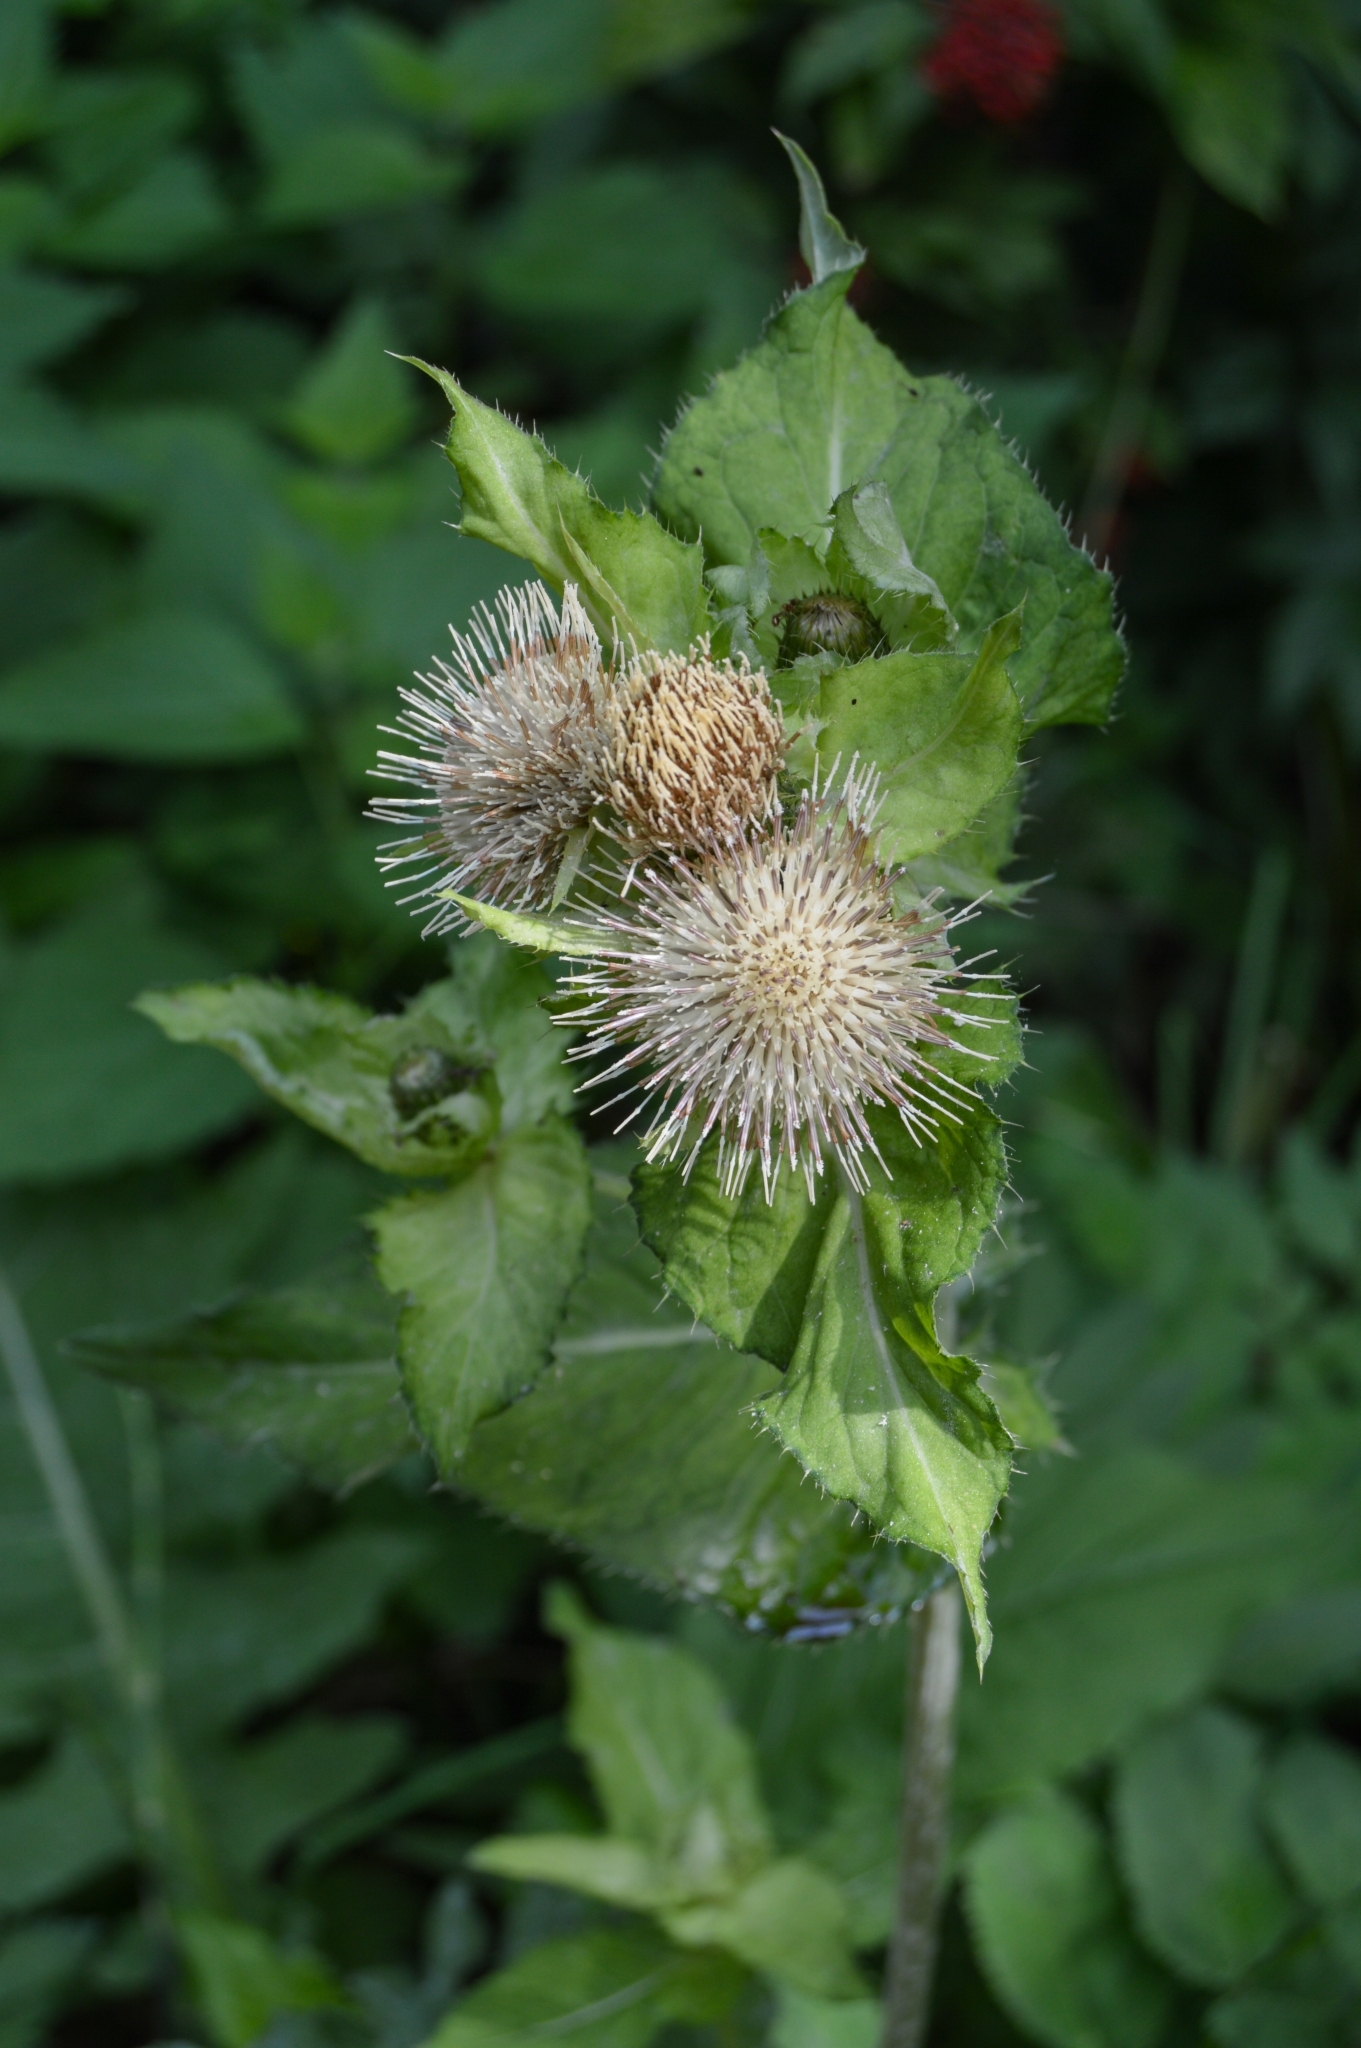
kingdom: Plantae
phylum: Tracheophyta
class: Magnoliopsida
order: Asterales
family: Asteraceae
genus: Cirsium
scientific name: Cirsium oleraceum
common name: Cabbage thistle
